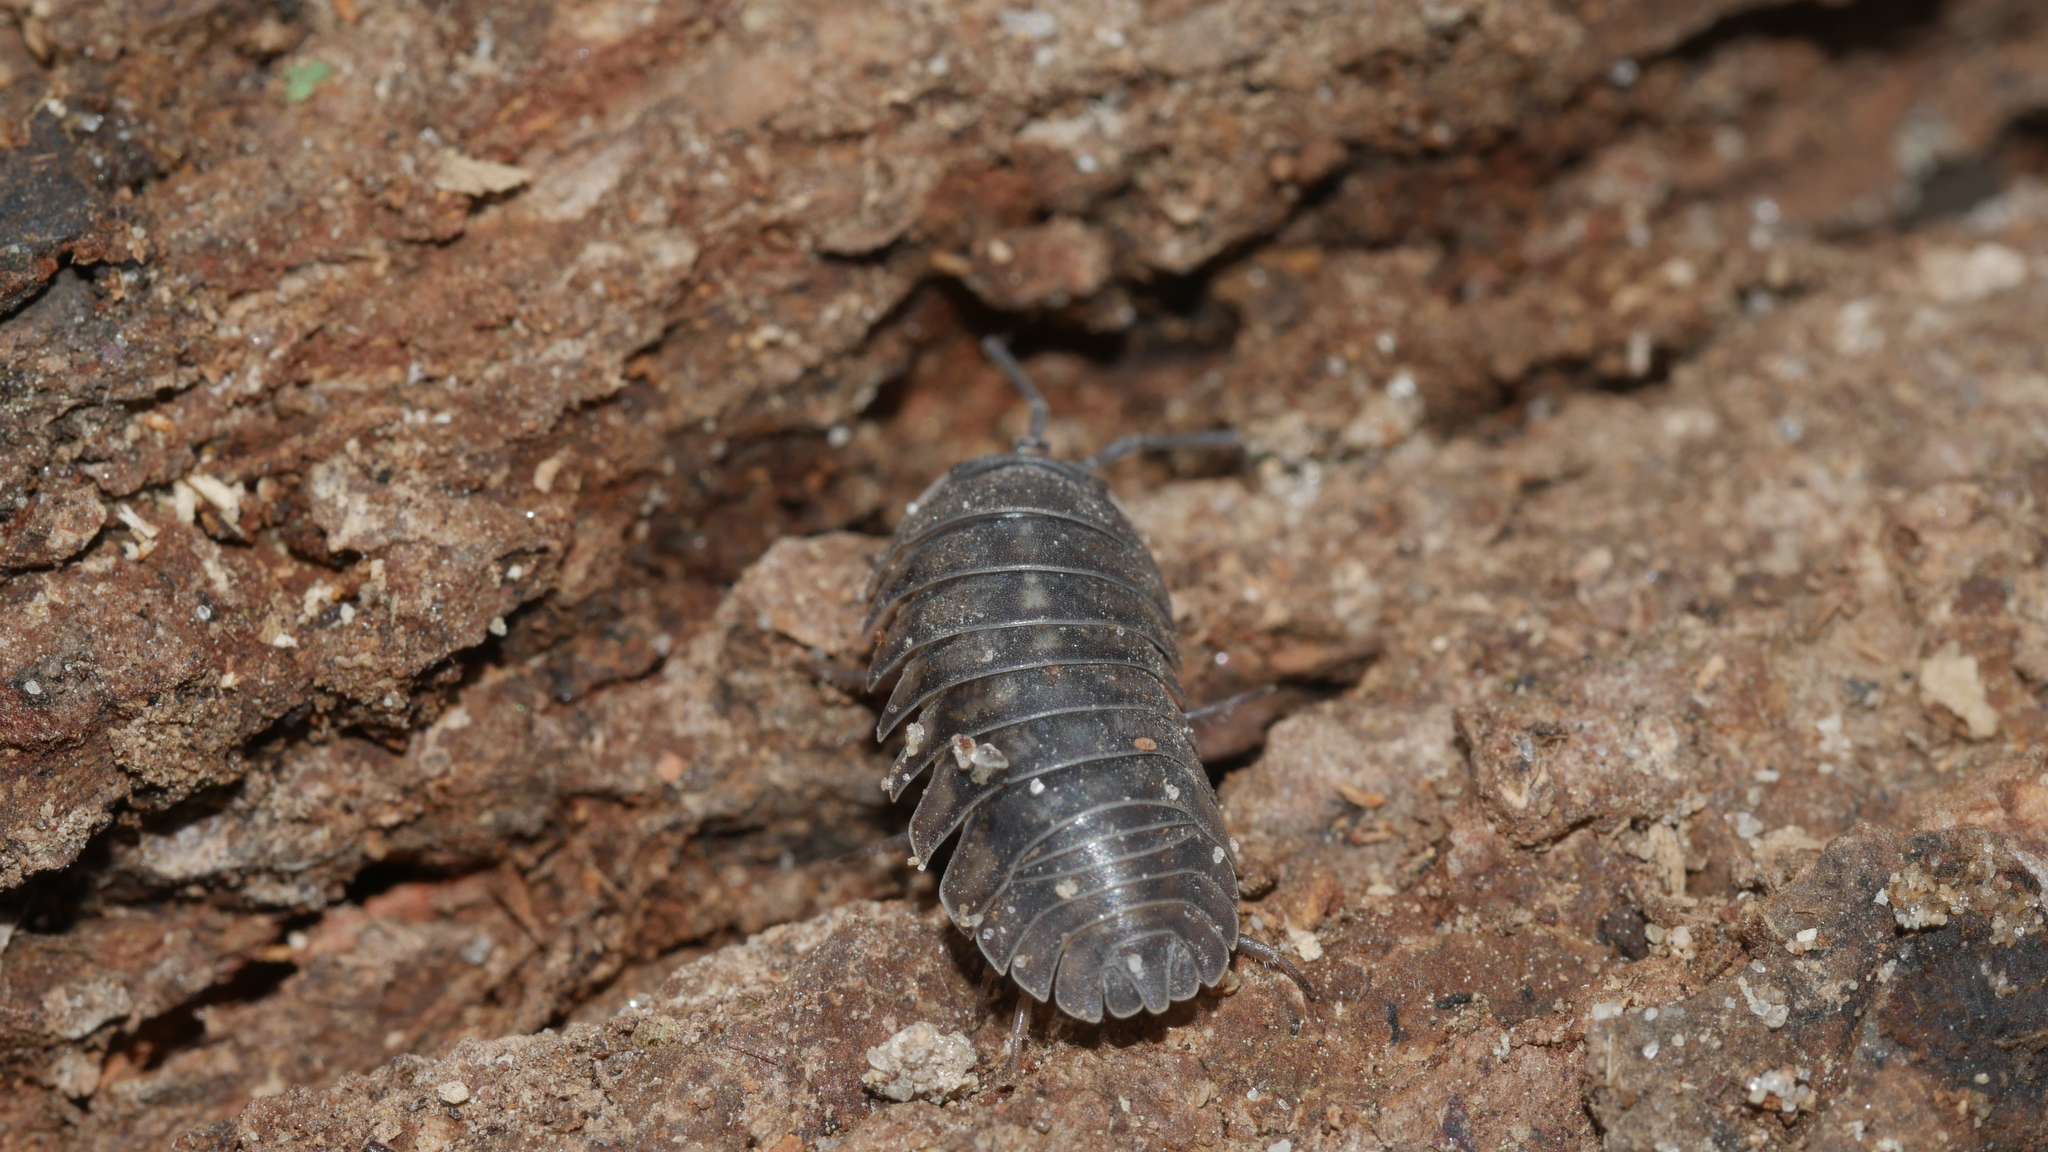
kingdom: Animalia
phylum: Arthropoda
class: Malacostraca
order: Isopoda
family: Armadillidiidae
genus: Armadillidium
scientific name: Armadillidium nasatum
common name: Isopod
